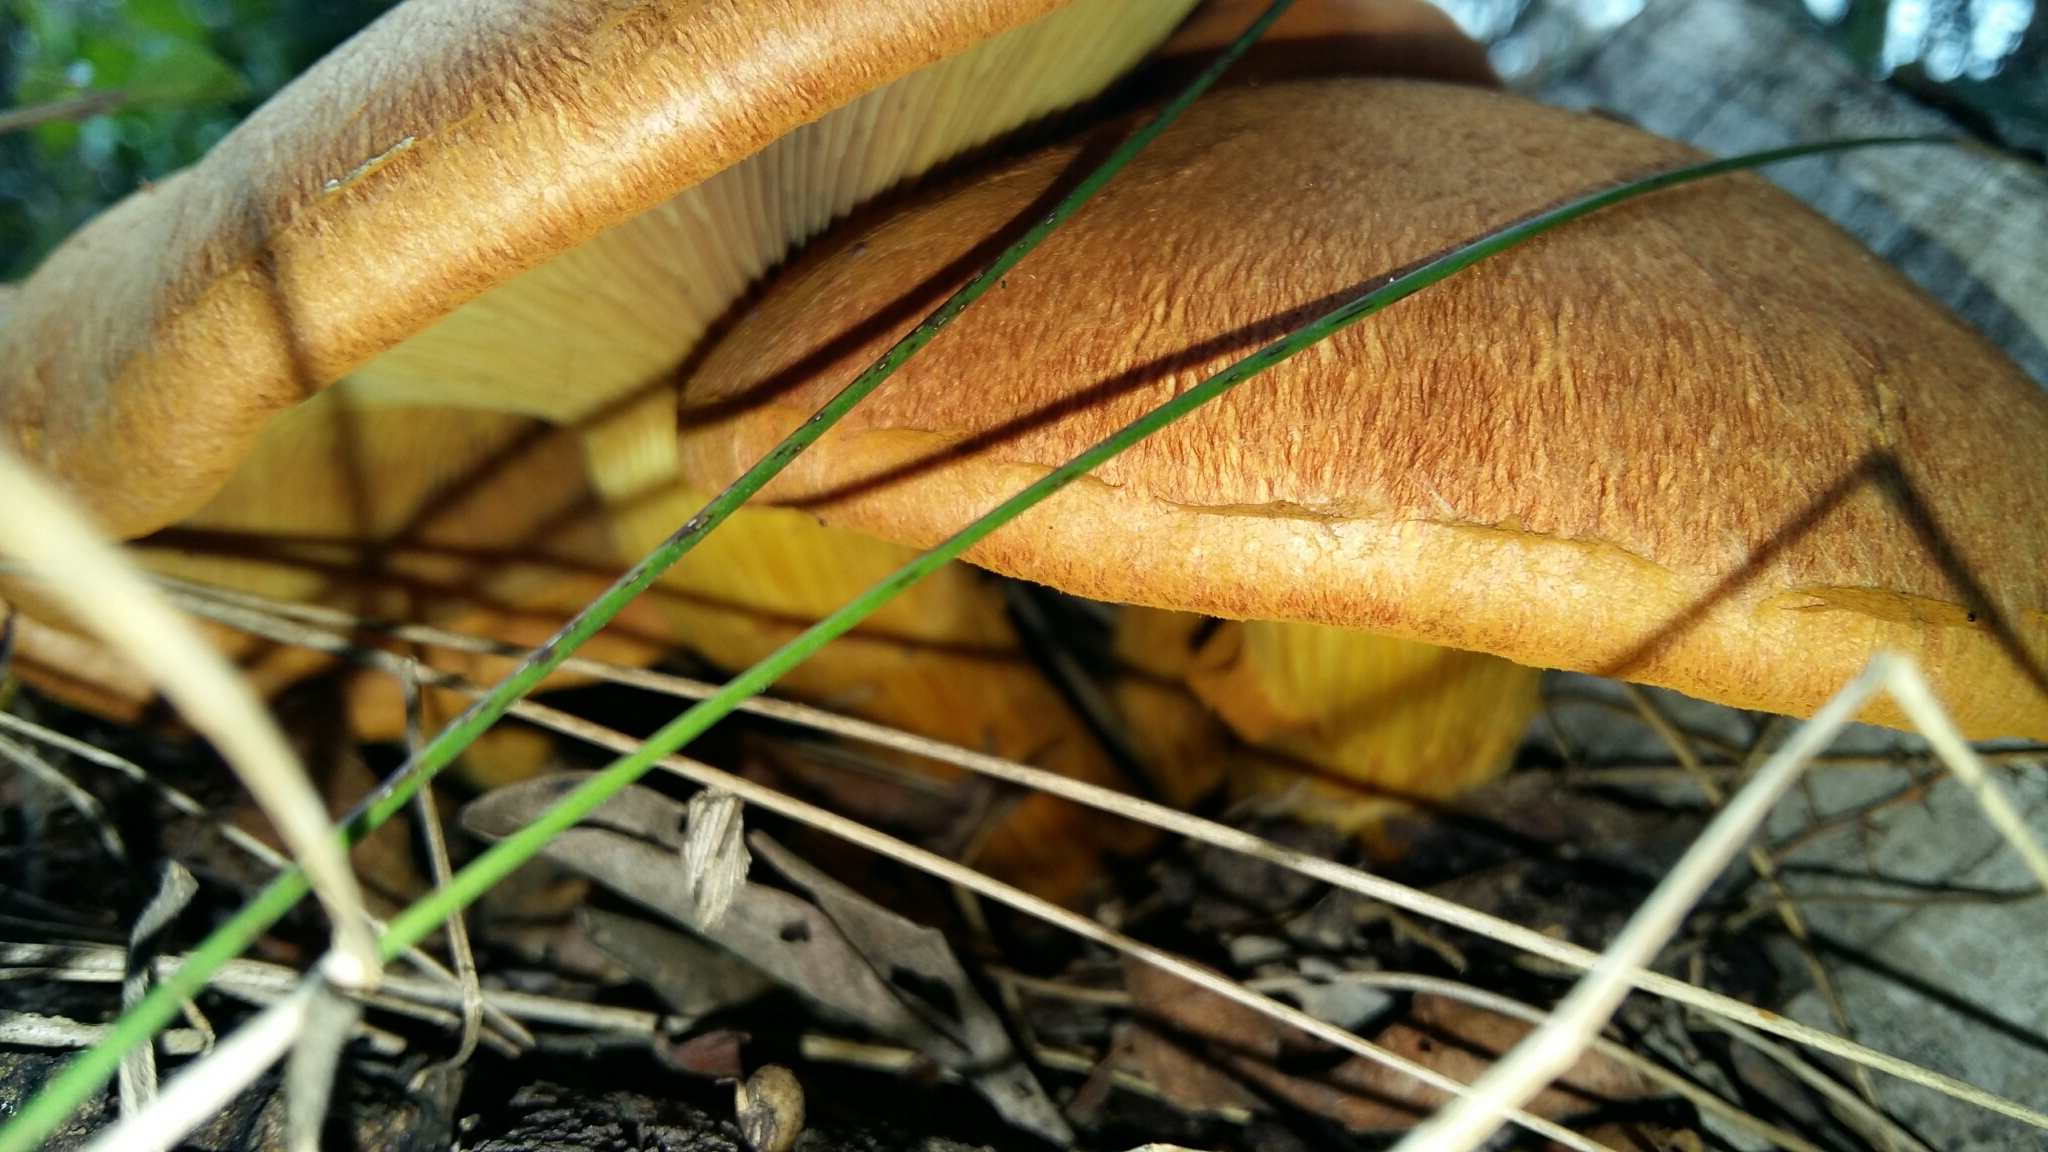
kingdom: Fungi
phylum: Basidiomycota
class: Agaricomycetes
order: Agaricales
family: Hymenogastraceae
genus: Gymnopilus
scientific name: Gymnopilus junonius
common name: Spectacular rustgill
